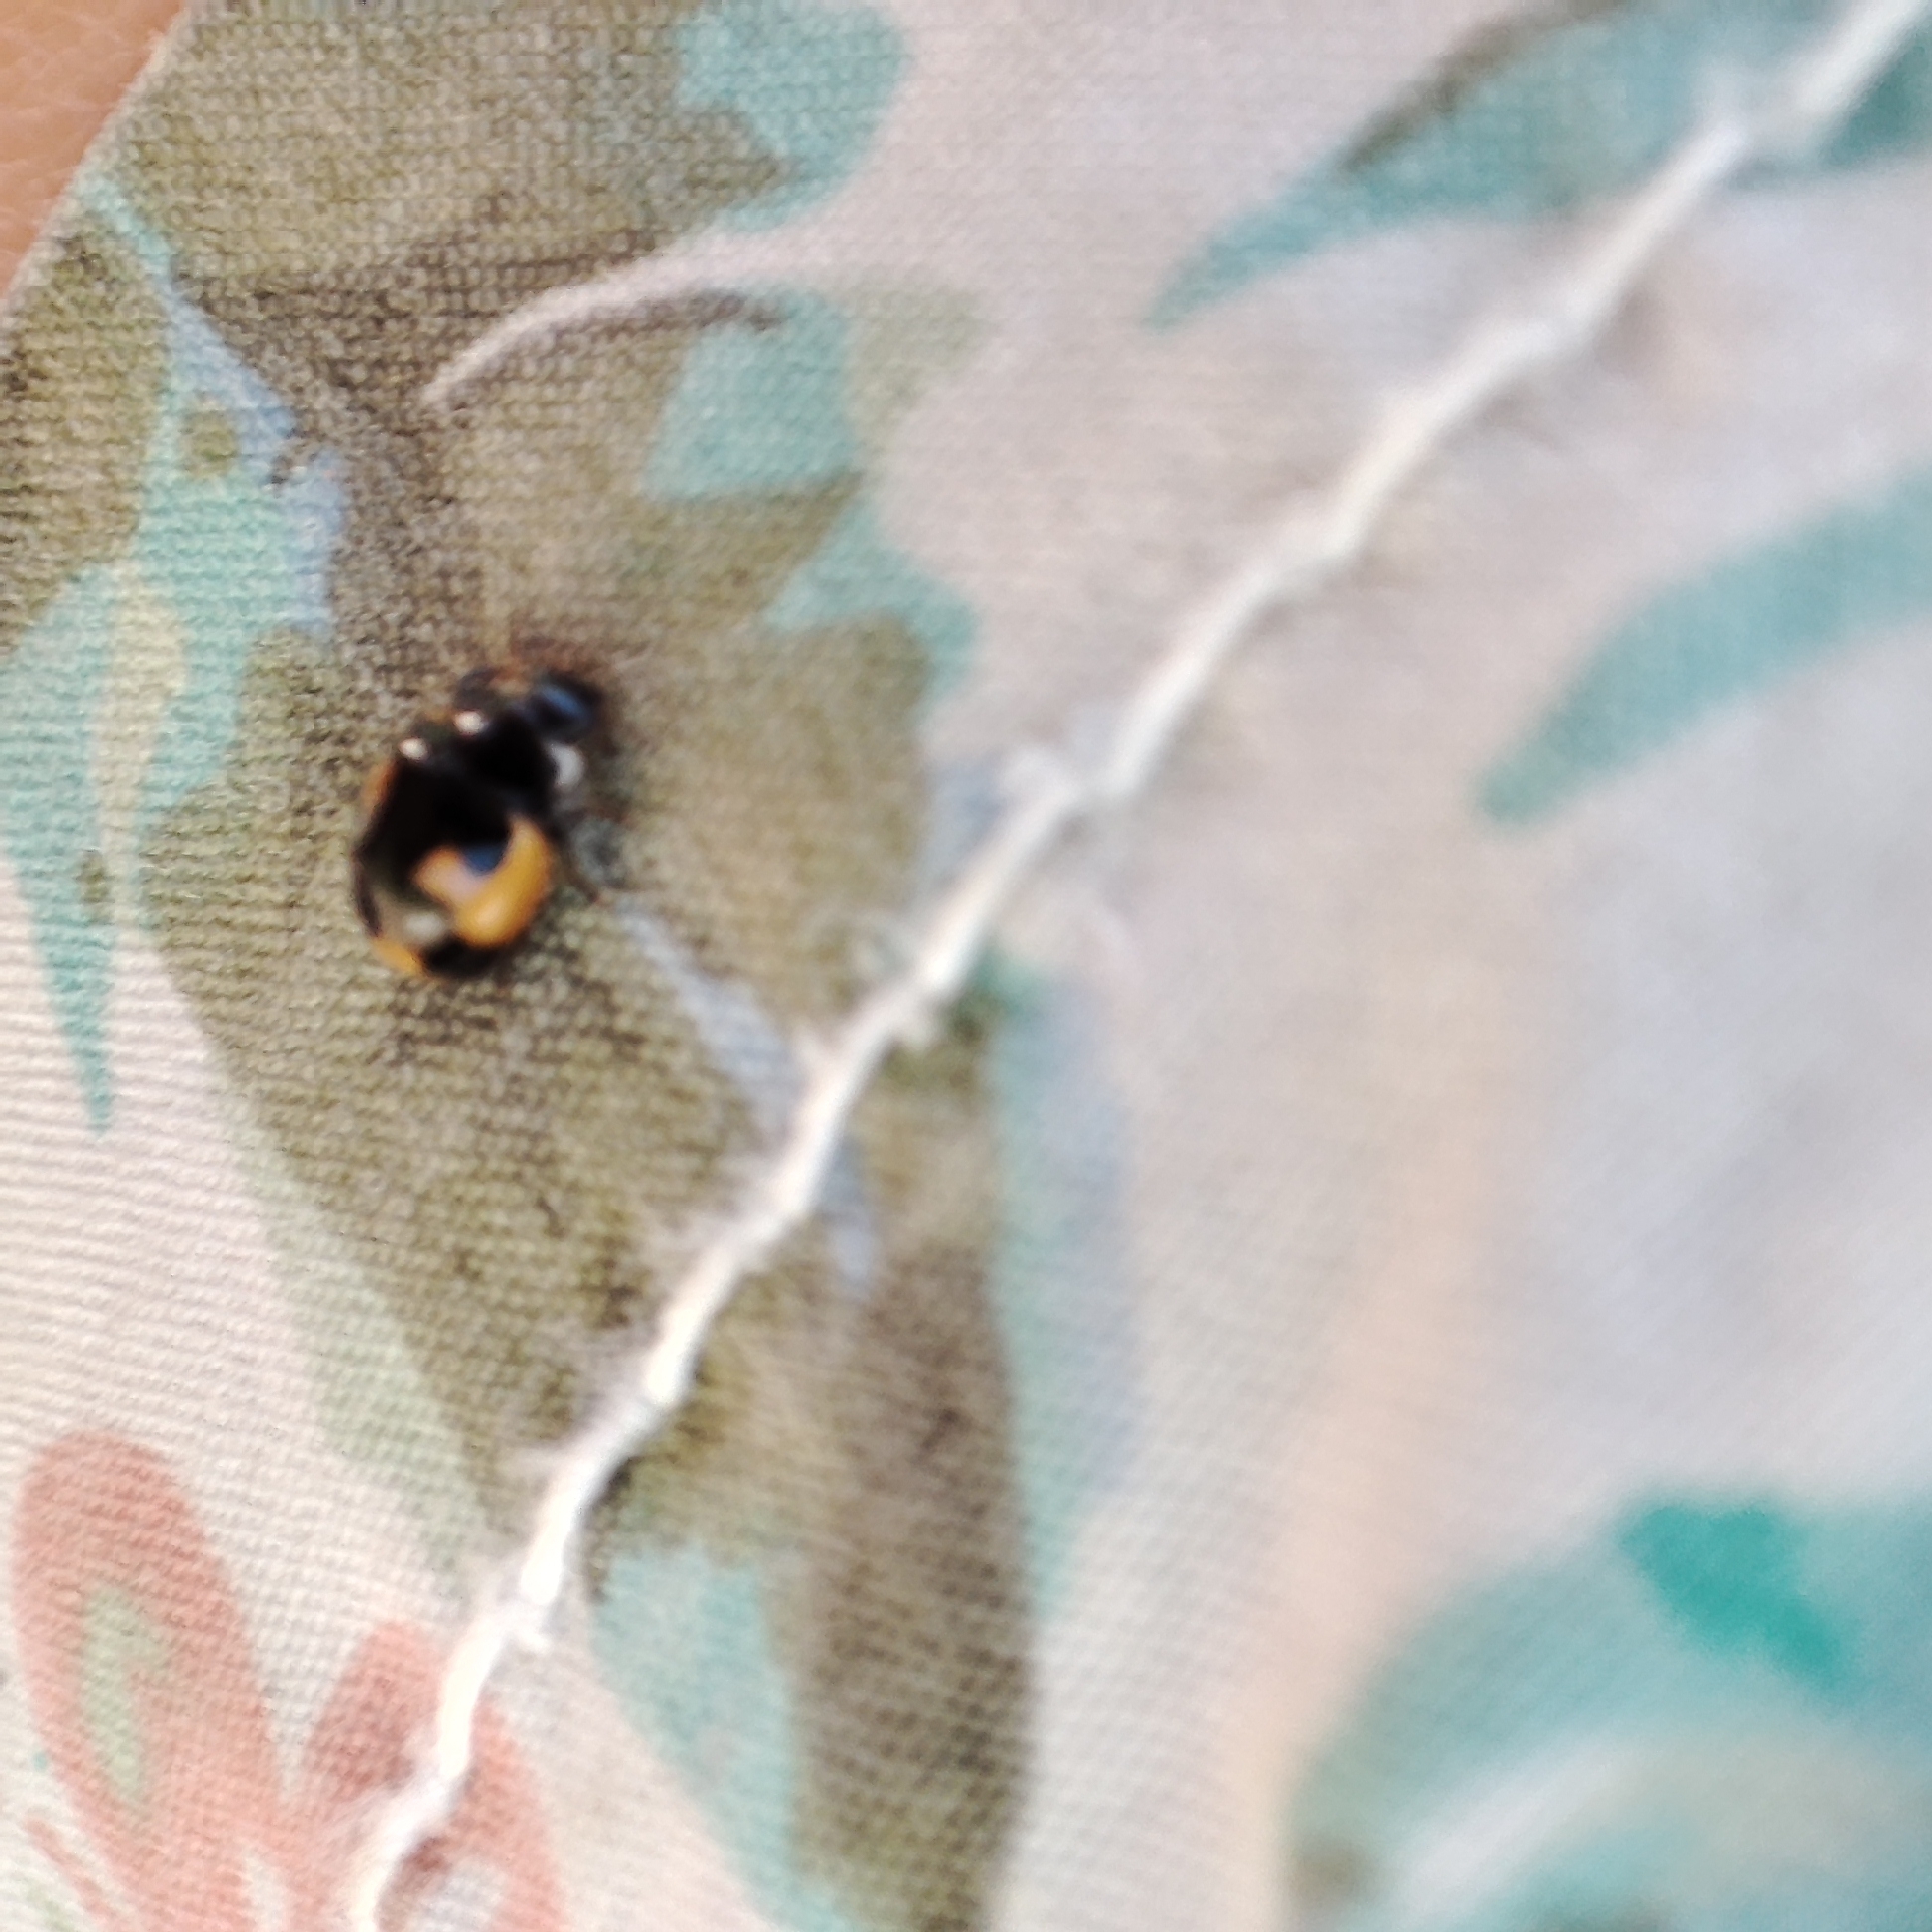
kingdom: Animalia
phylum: Arthropoda
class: Insecta
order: Coleoptera
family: Coccinellidae
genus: Ceratomegilla
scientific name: Ceratomegilla alpina
